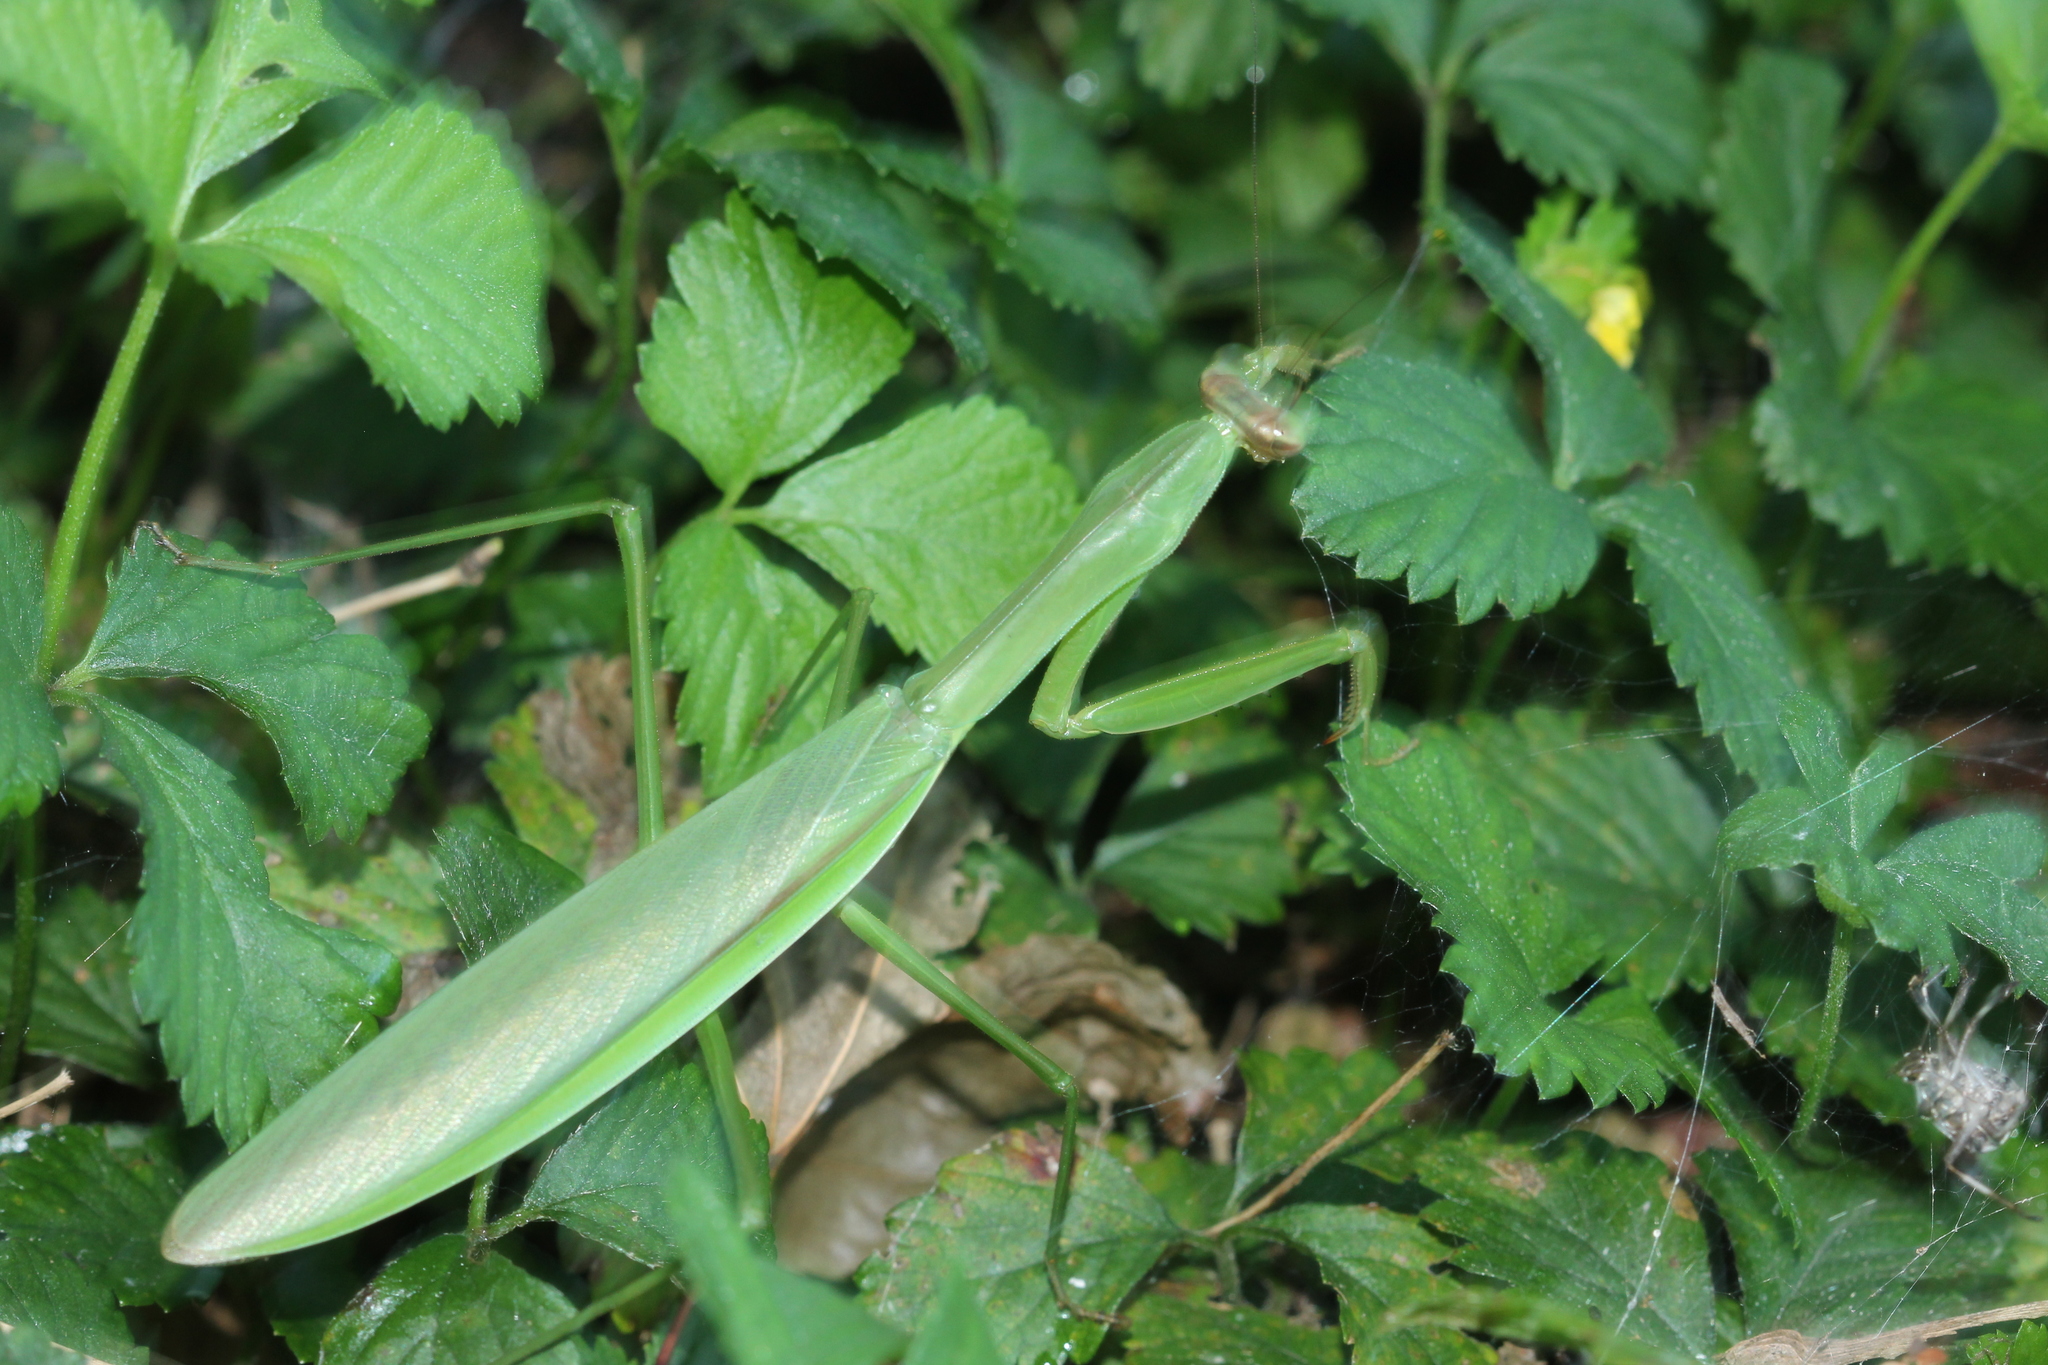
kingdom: Animalia
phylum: Arthropoda
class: Insecta
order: Mantodea
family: Mantidae
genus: Tenodera
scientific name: Tenodera angustipennis
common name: Asian mantis
